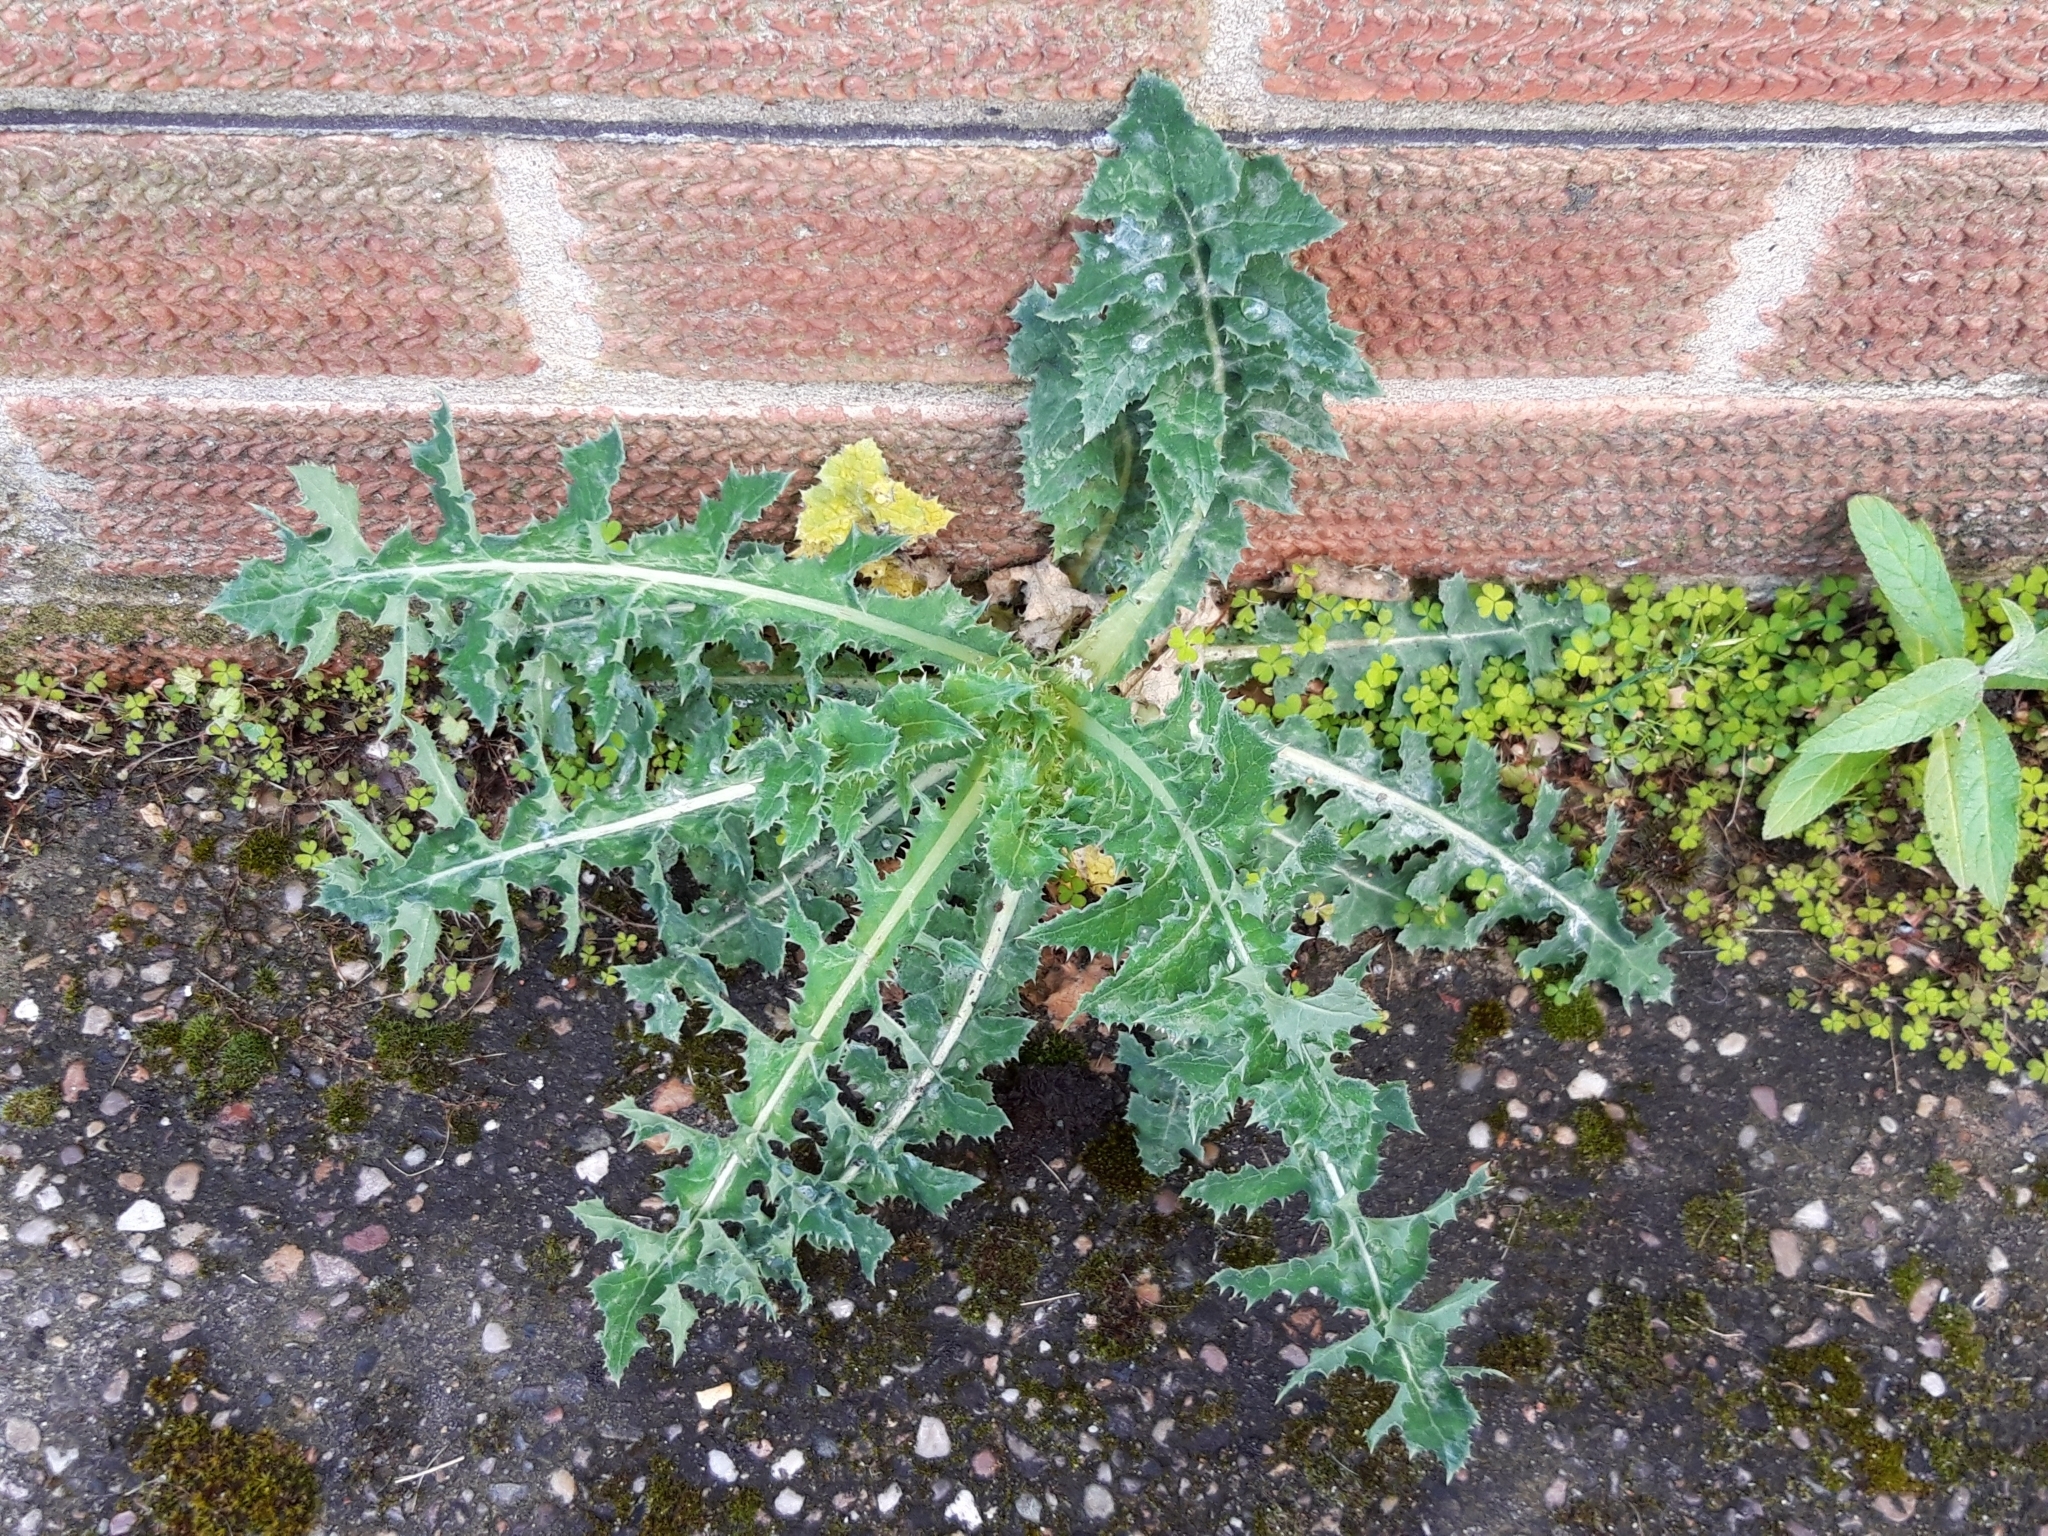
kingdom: Plantae
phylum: Tracheophyta
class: Magnoliopsida
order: Asterales
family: Asteraceae
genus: Sonchus
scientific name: Sonchus asper
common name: Prickly sow-thistle
